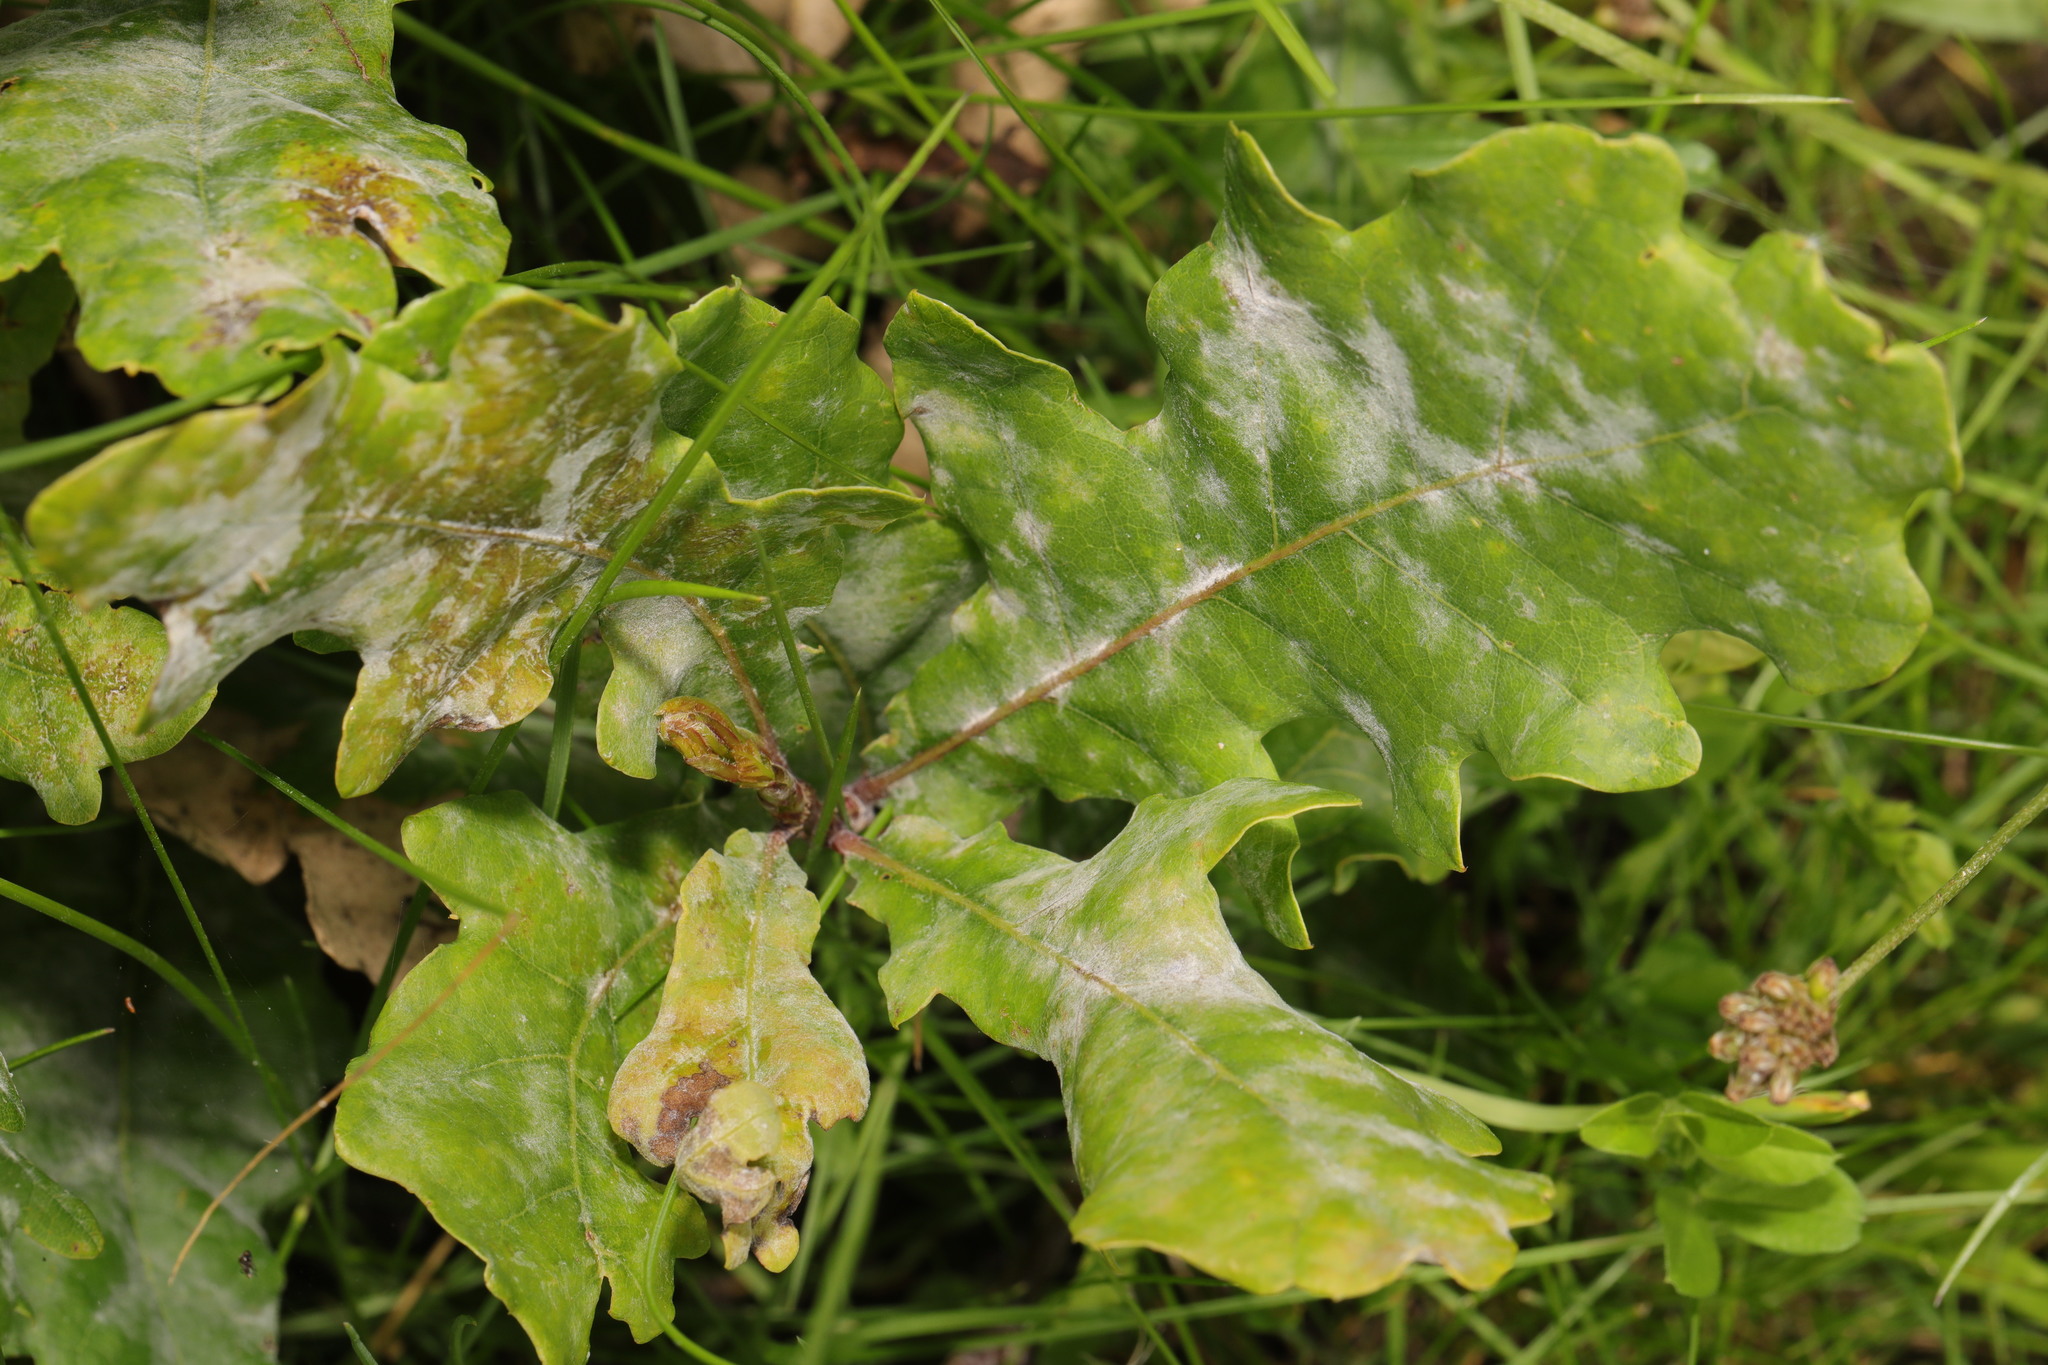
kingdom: Plantae
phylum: Tracheophyta
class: Magnoliopsida
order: Fagales
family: Fagaceae
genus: Quercus
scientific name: Quercus robur
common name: Pedunculate oak
